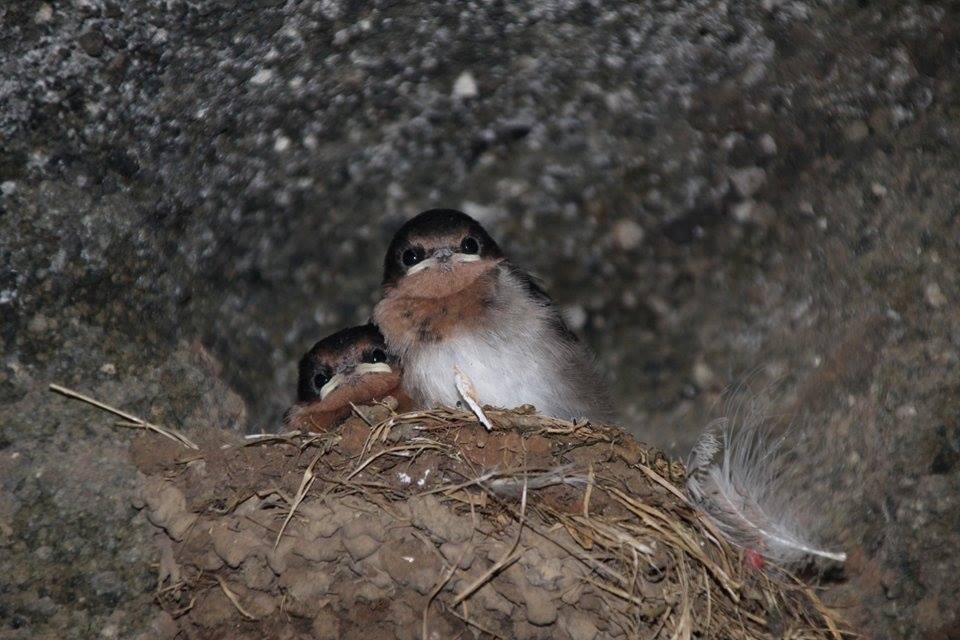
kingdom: Animalia
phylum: Chordata
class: Aves
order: Passeriformes
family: Hirundinidae
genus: Hirundo
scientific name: Hirundo neoxena
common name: Welcome swallow
